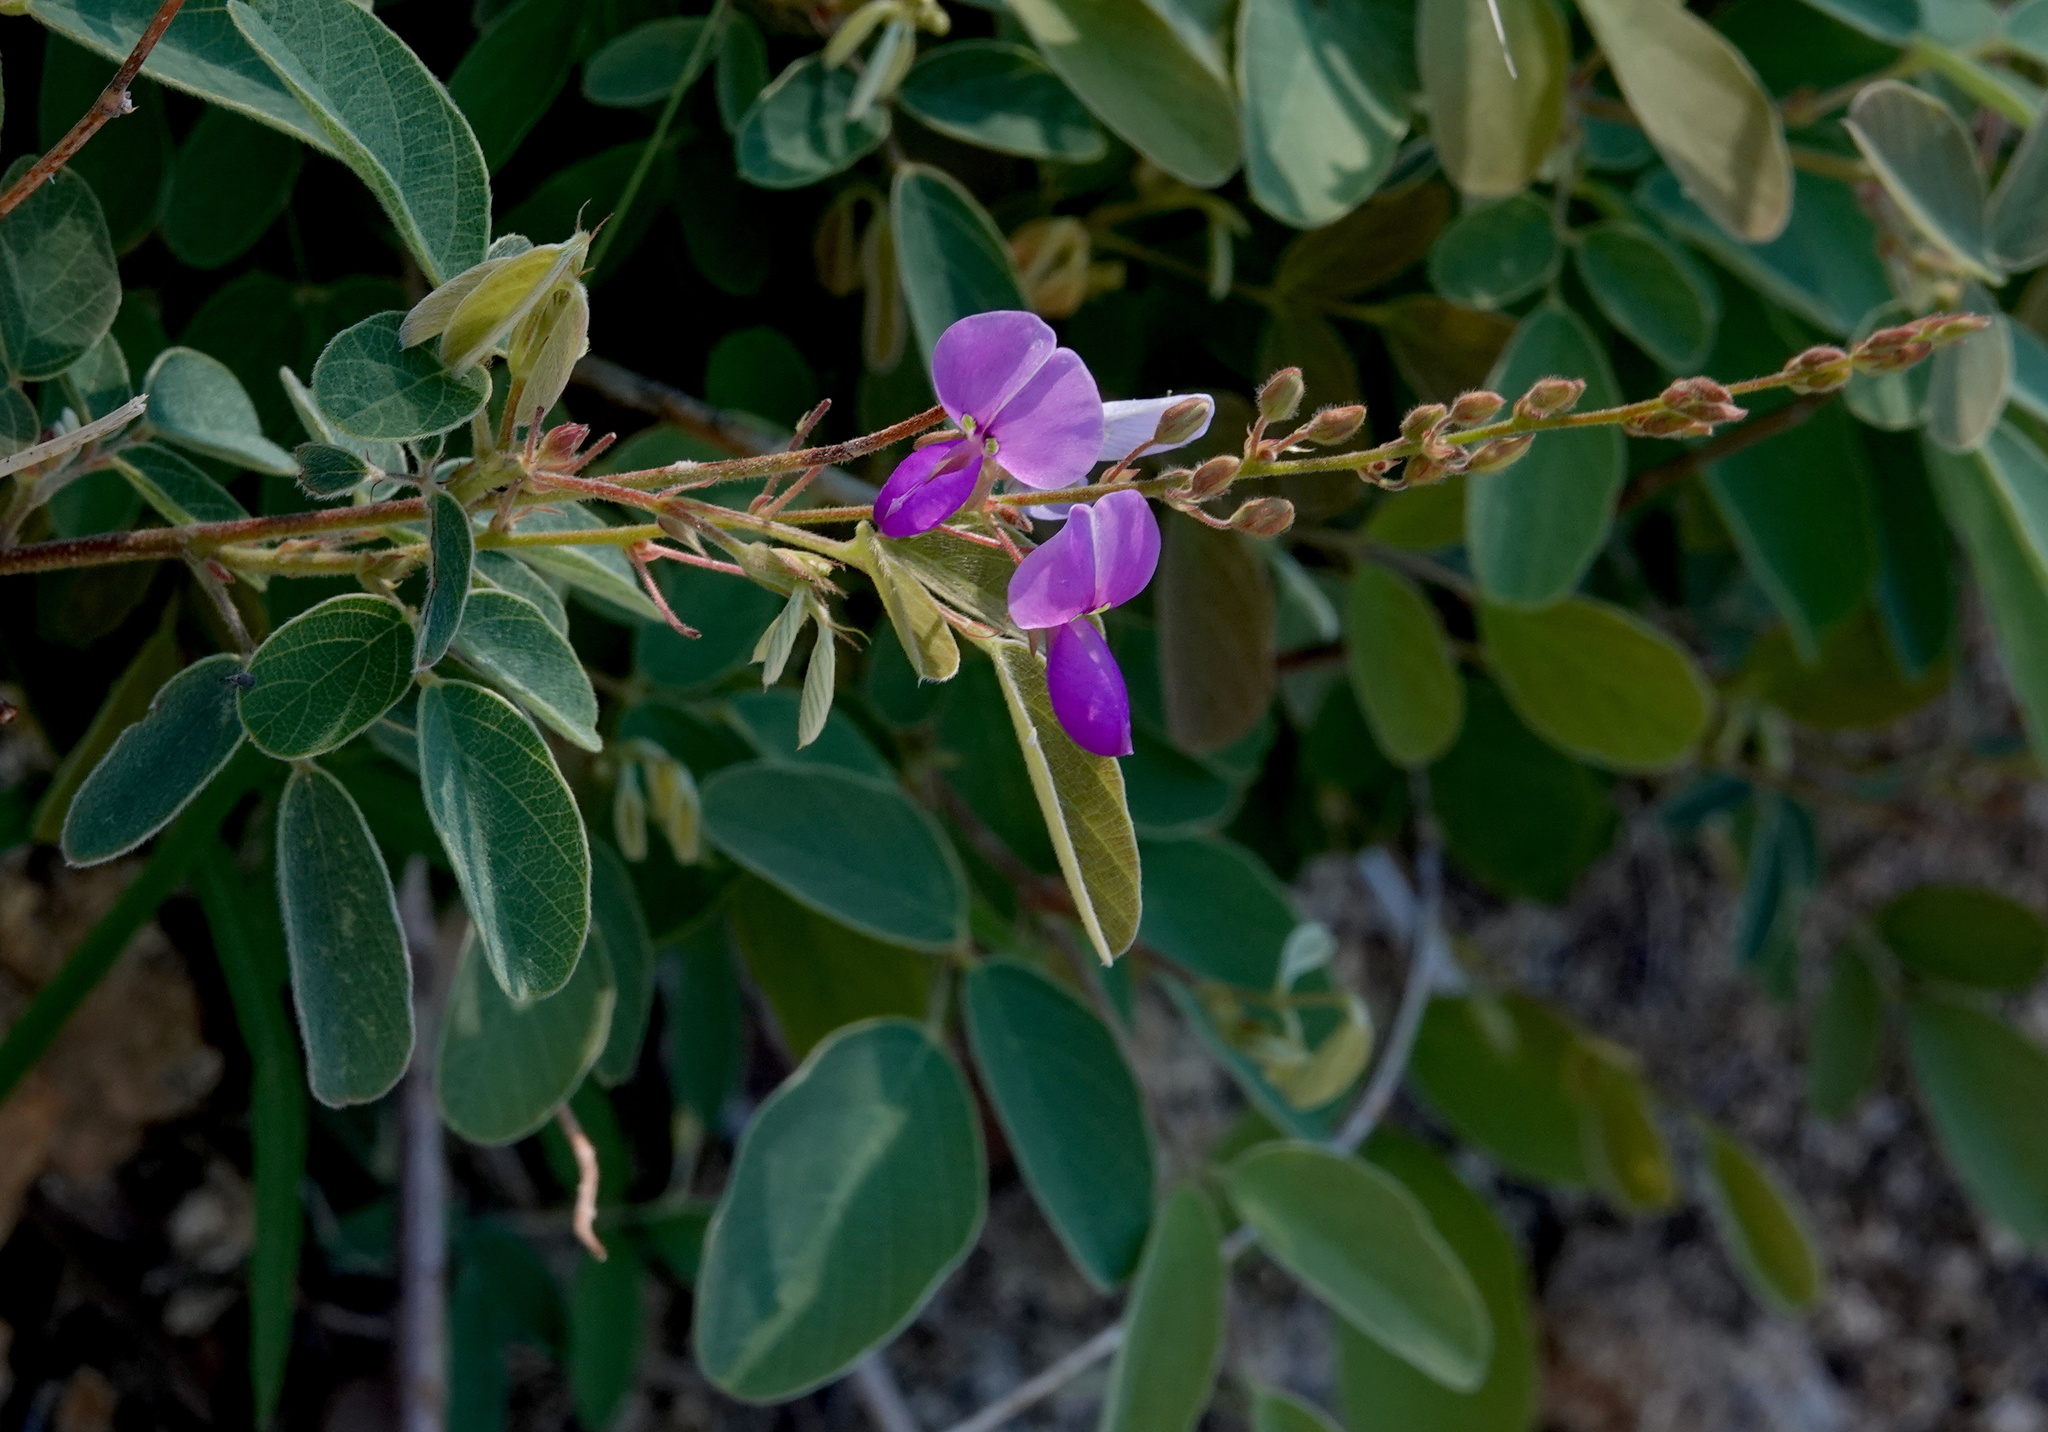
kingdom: Plantae
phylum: Tracheophyta
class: Magnoliopsida
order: Fabales
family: Fabaceae
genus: Desmodium
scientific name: Desmodium cinerascens
